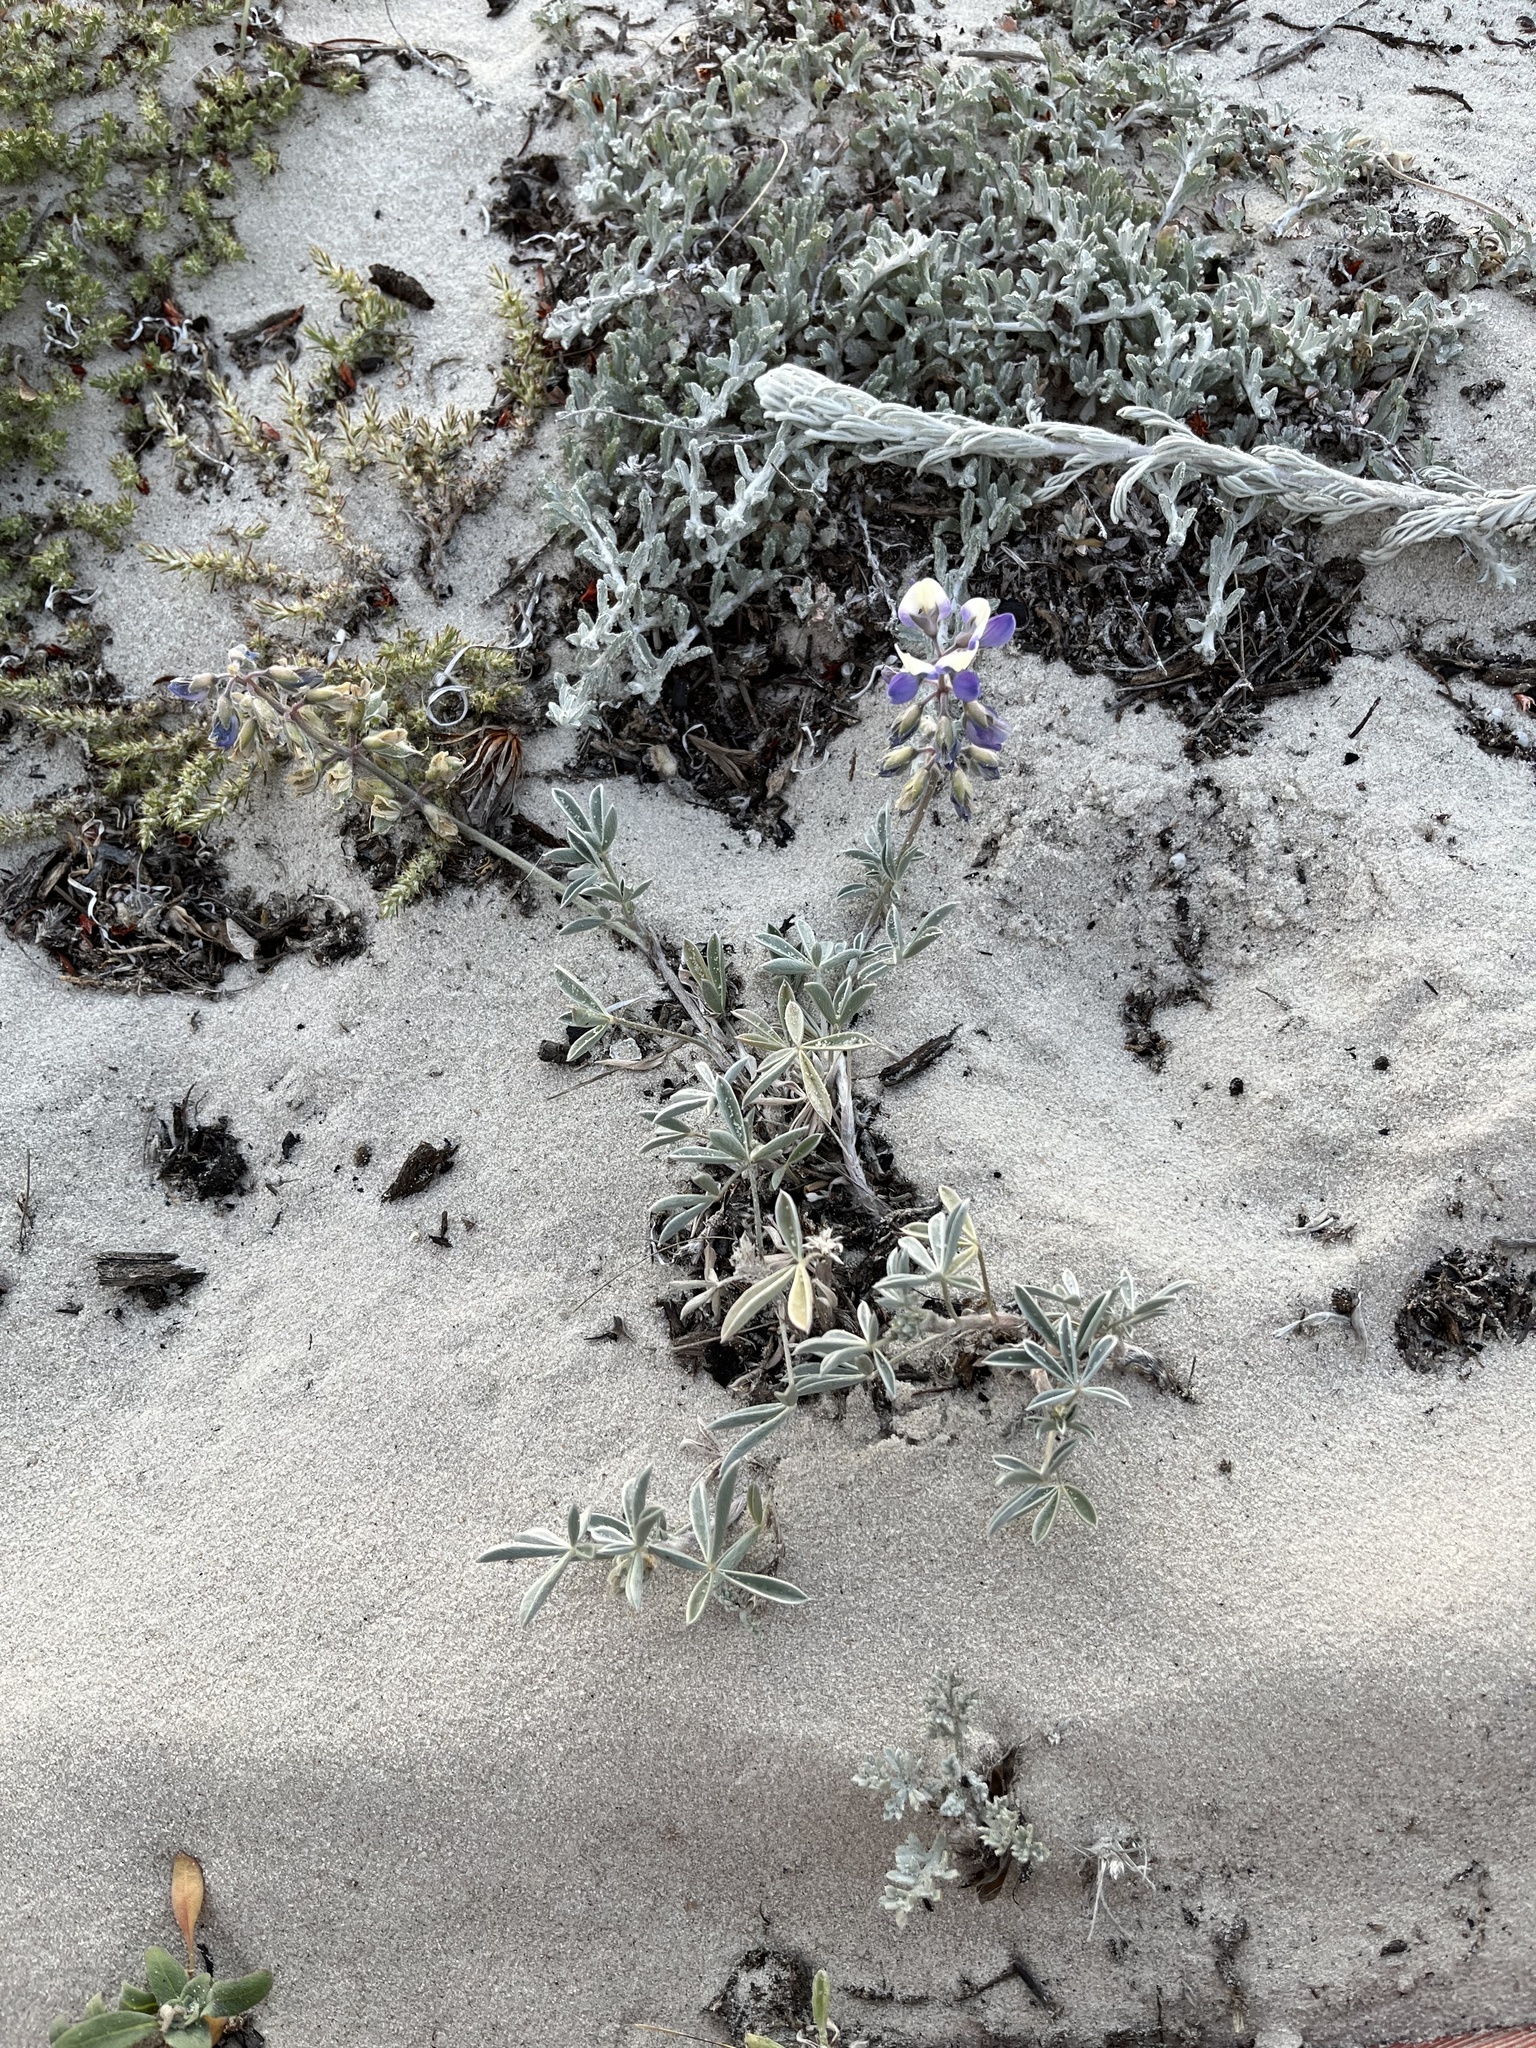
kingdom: Plantae
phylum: Tracheophyta
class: Magnoliopsida
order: Fabales
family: Fabaceae
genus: Lupinus
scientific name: Lupinus variicolor
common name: Lindley's varied lupine
